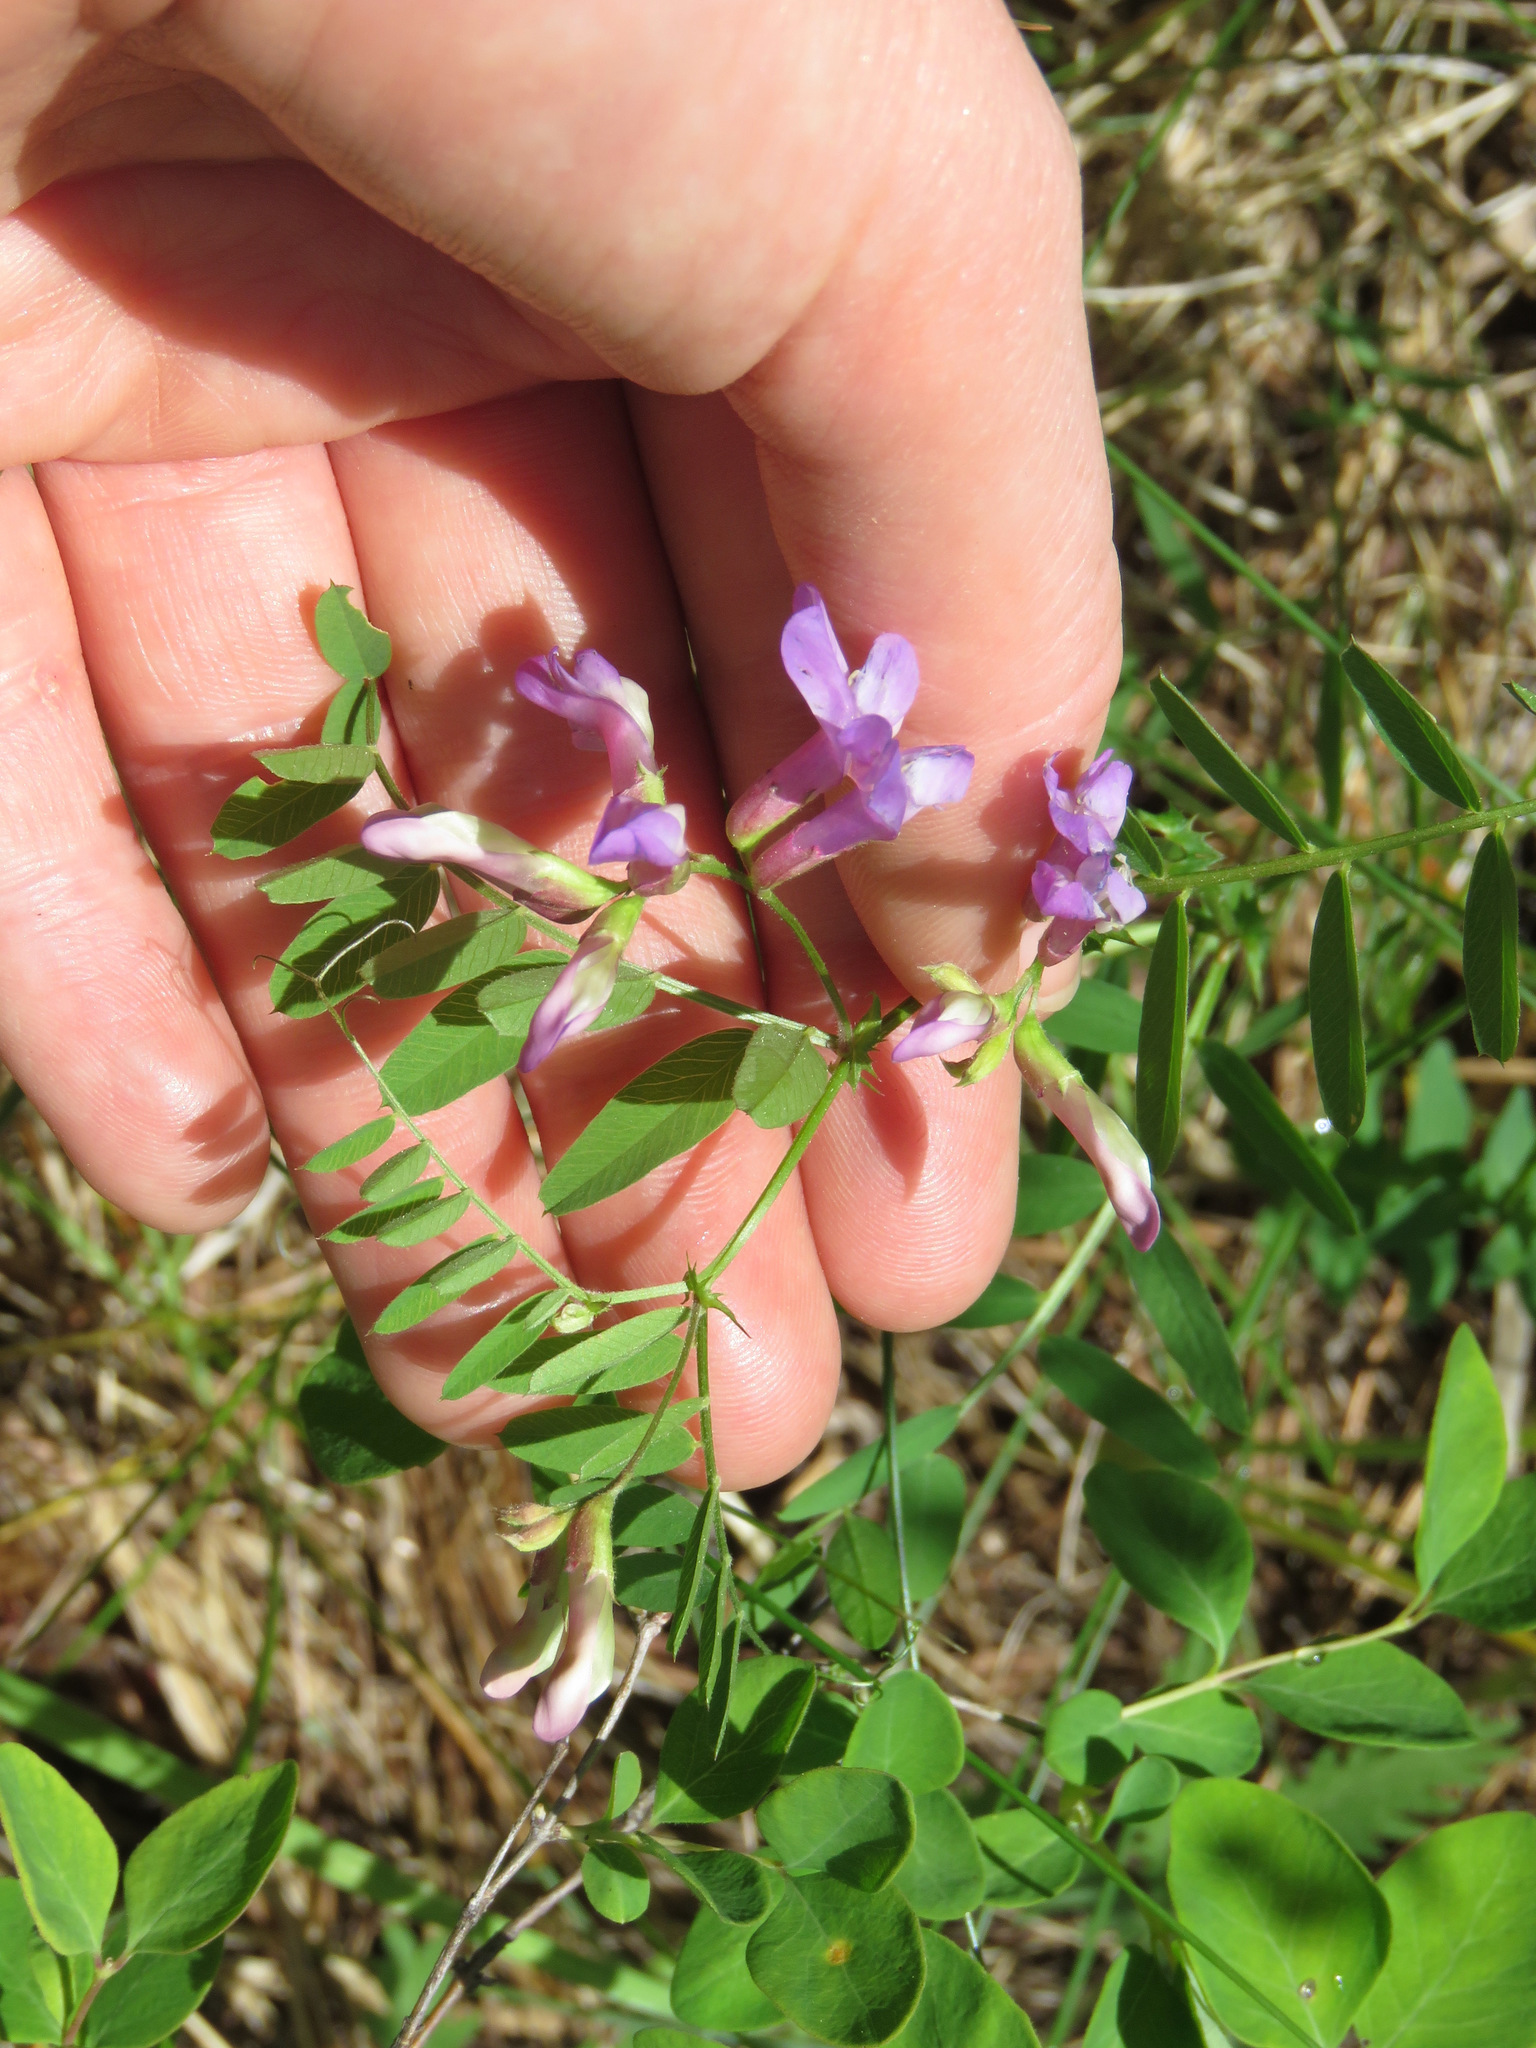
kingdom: Plantae
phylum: Tracheophyta
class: Magnoliopsida
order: Fabales
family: Fabaceae
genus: Vicia
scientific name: Vicia americana
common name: American vetch
